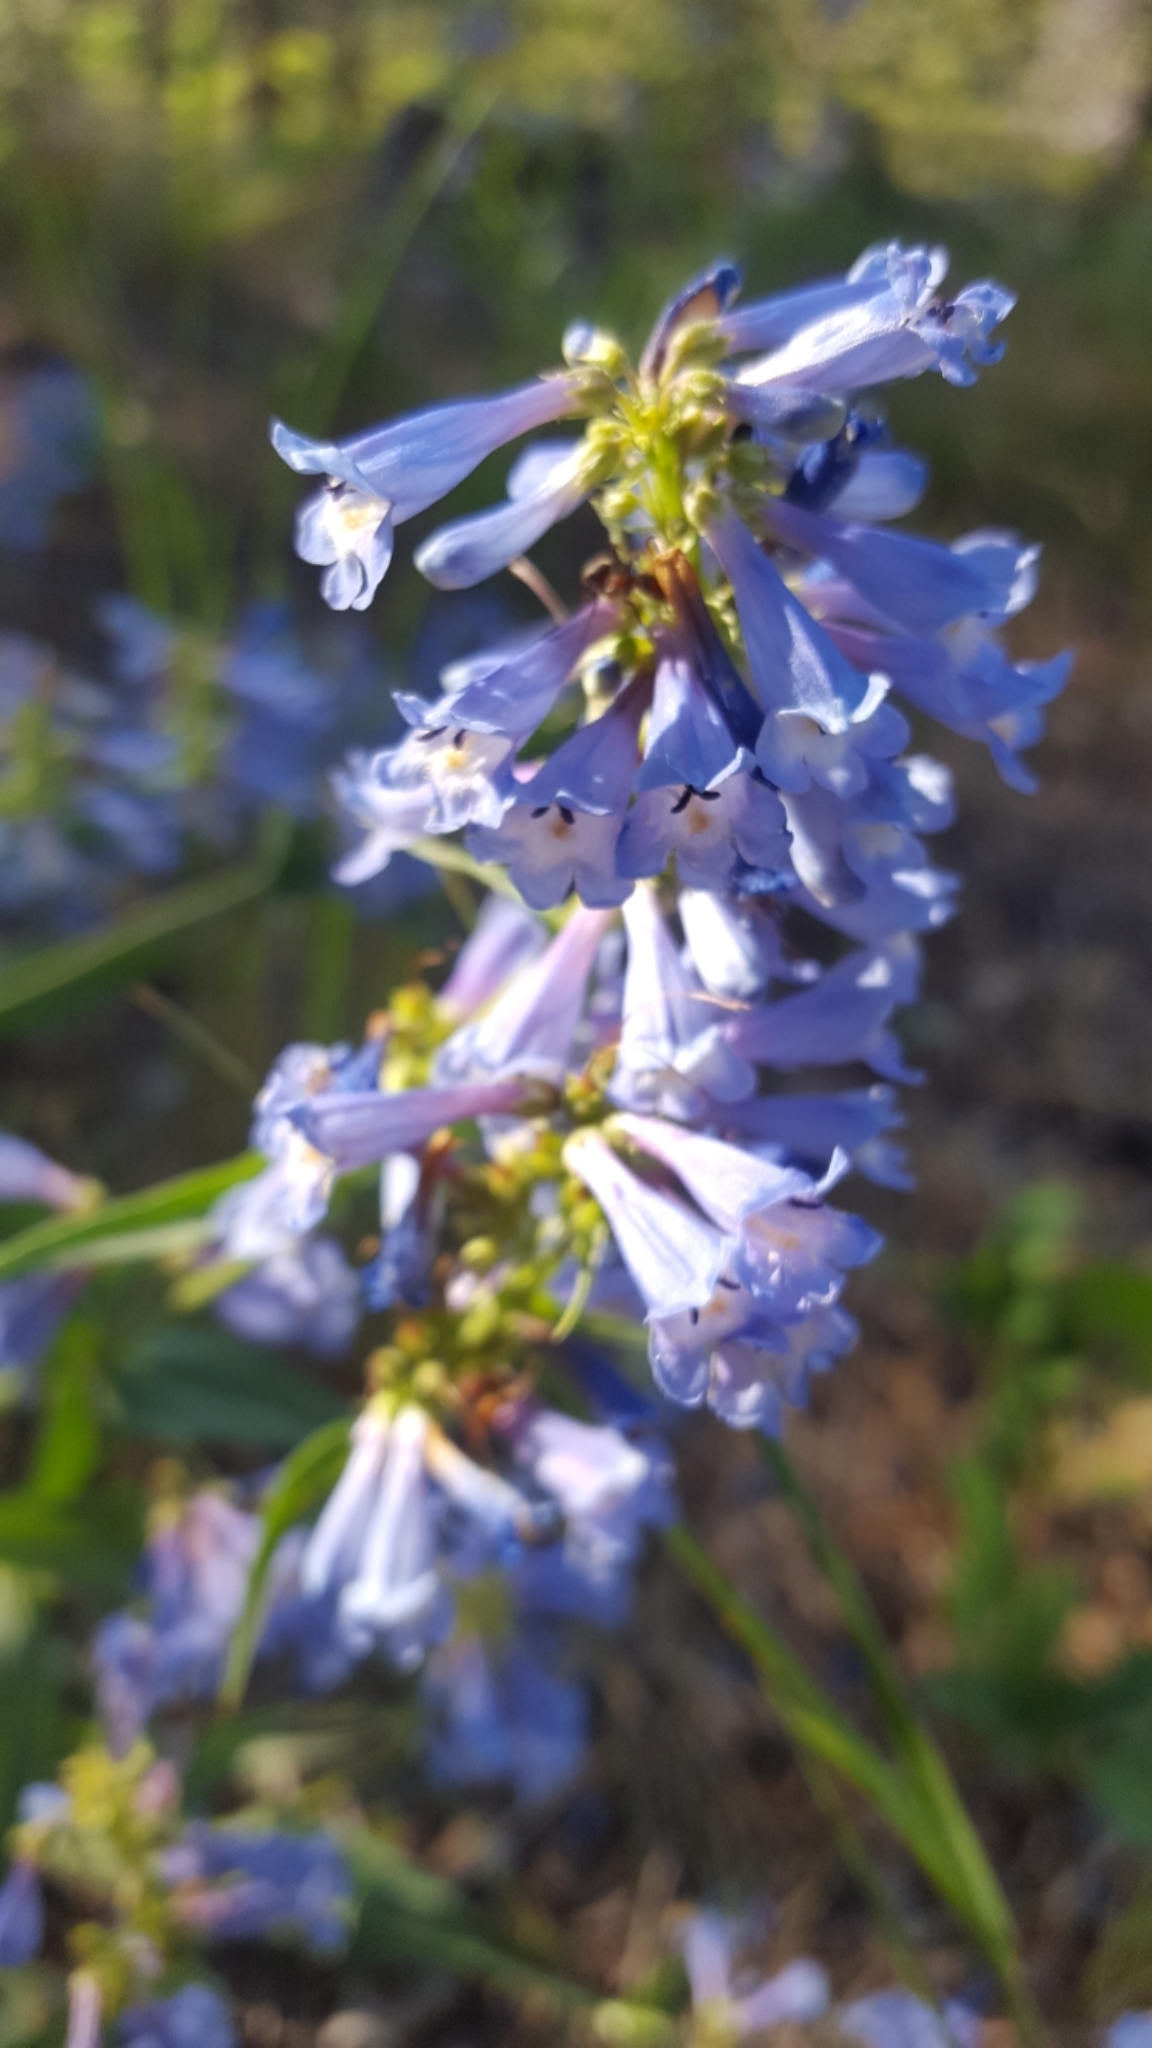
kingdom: Plantae
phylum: Tracheophyta
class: Magnoliopsida
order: Lamiales
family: Plantaginaceae
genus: Penstemon
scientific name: Penstemon rydbergii
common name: Rydberg's beardtongue
